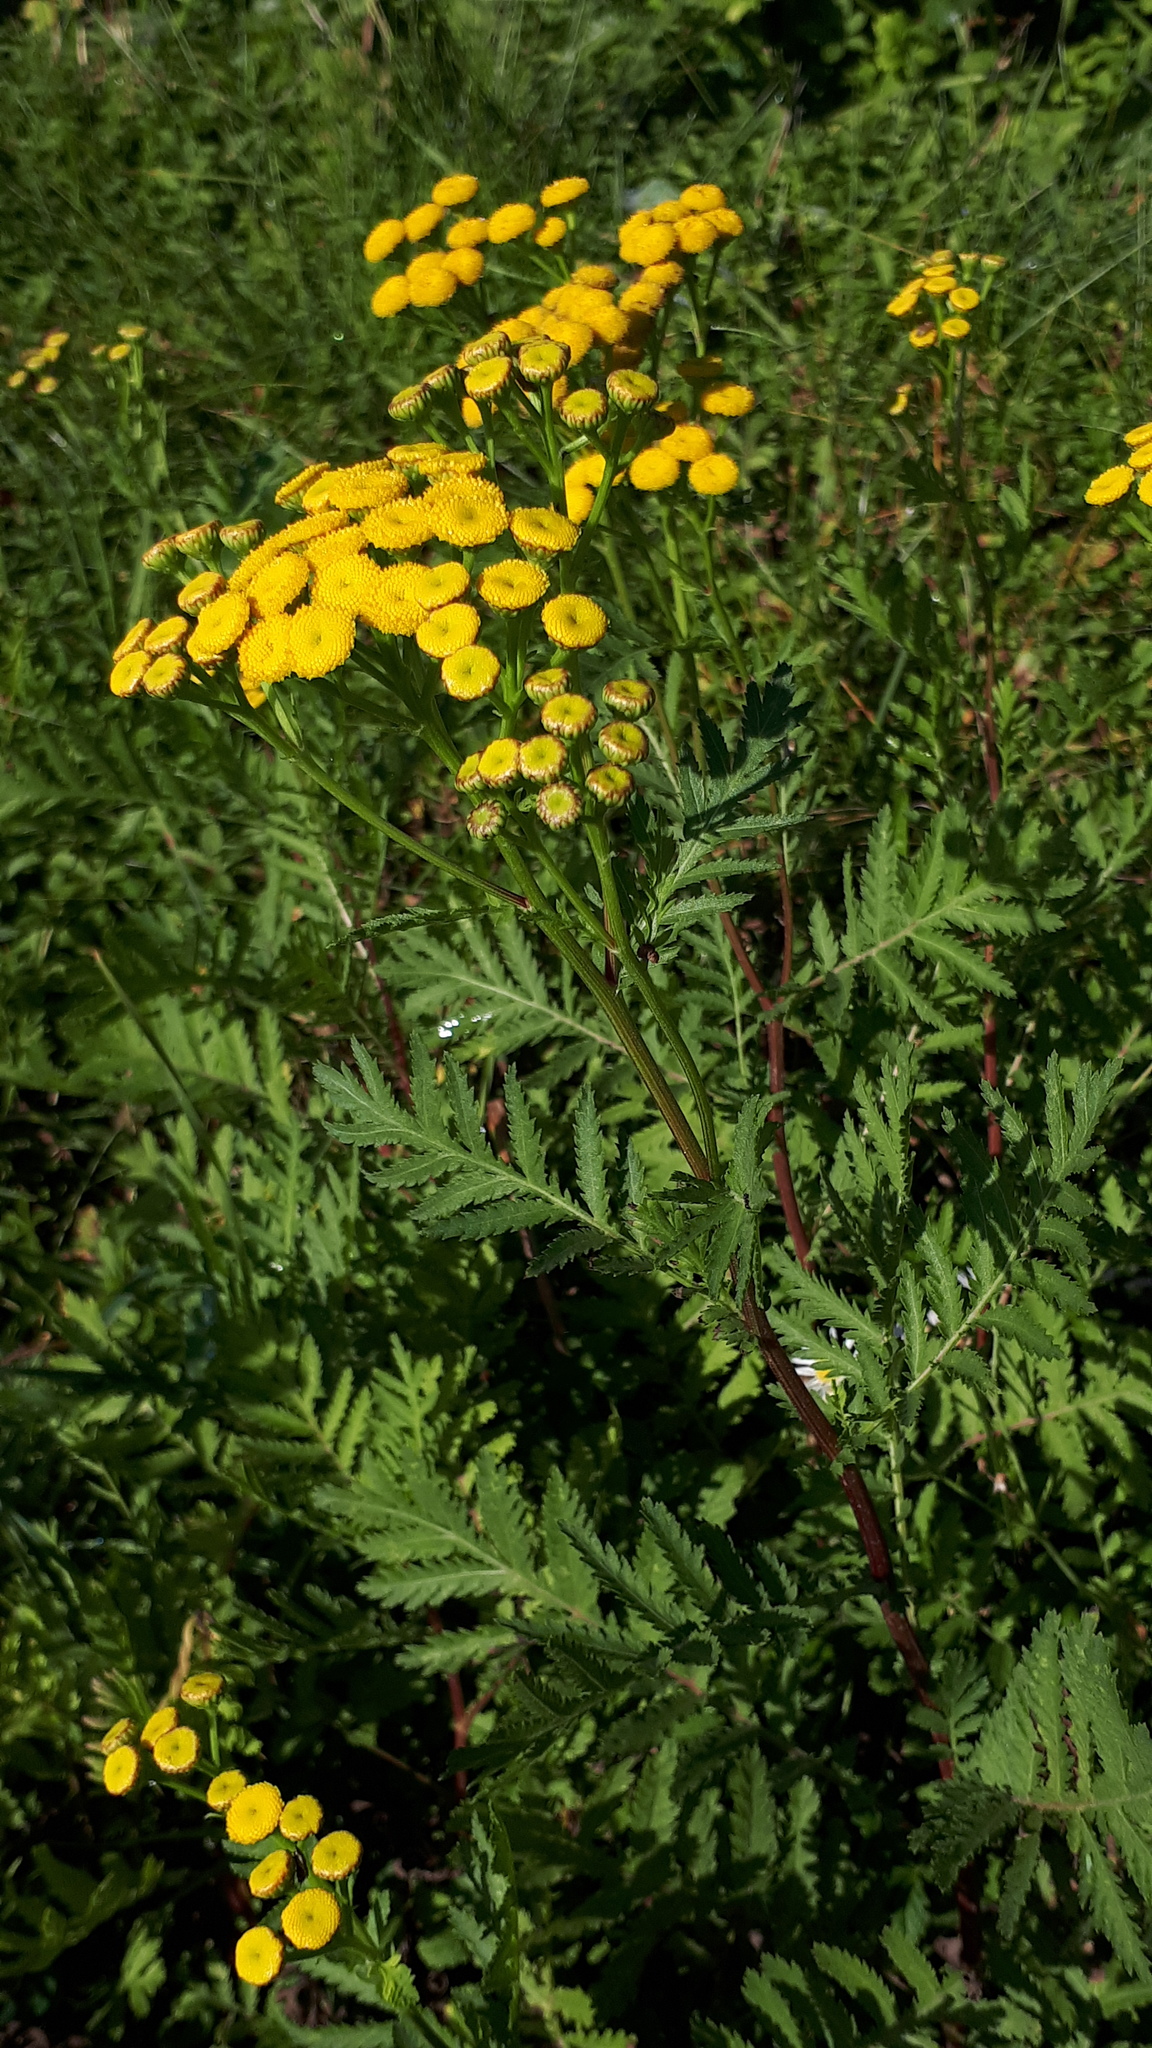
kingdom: Plantae
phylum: Tracheophyta
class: Magnoliopsida
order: Asterales
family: Asteraceae
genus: Tanacetum
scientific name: Tanacetum vulgare
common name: Common tansy
